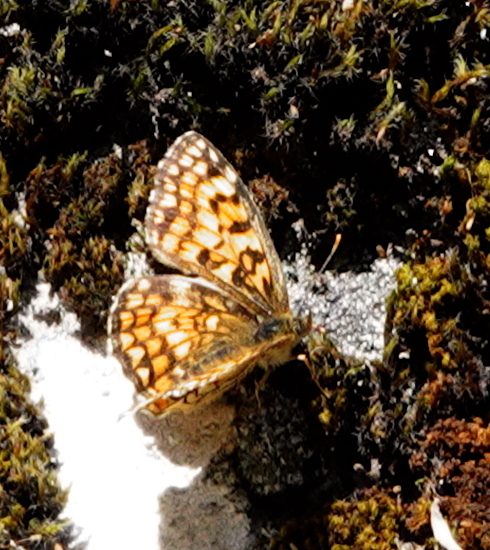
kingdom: Animalia
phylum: Arthropoda
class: Insecta
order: Lepidoptera
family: Nymphalidae
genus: Mellicta
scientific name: Mellicta athalia
